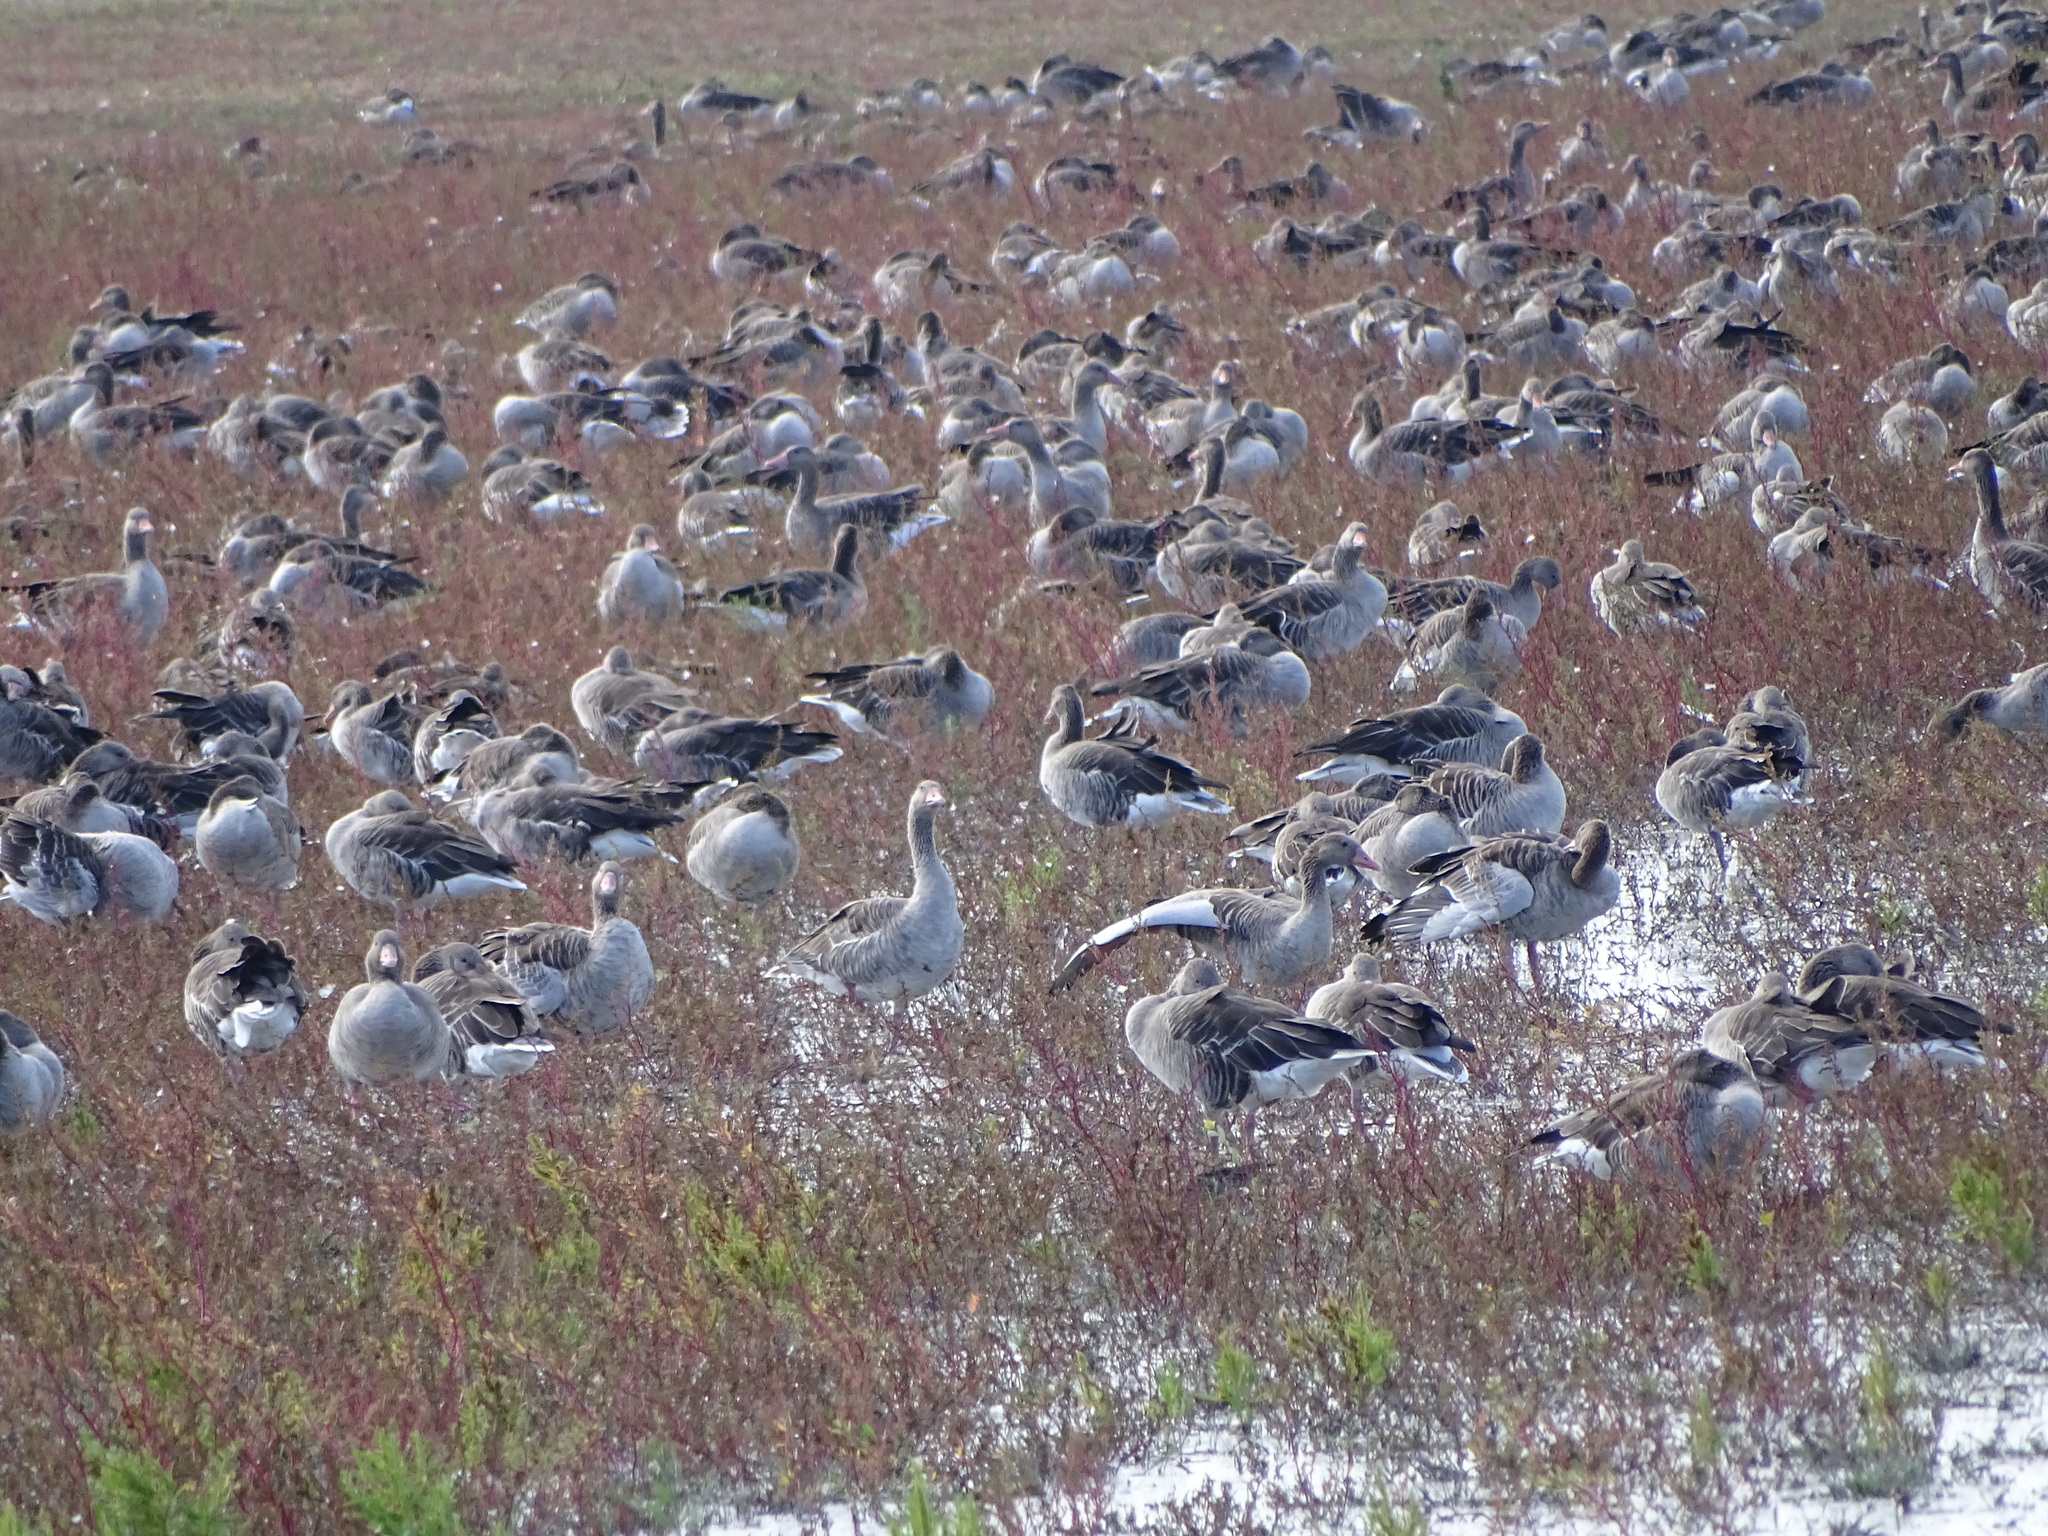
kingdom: Animalia
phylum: Chordata
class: Aves
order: Anseriformes
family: Anatidae
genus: Anser
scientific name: Anser anser
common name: Greylag goose
